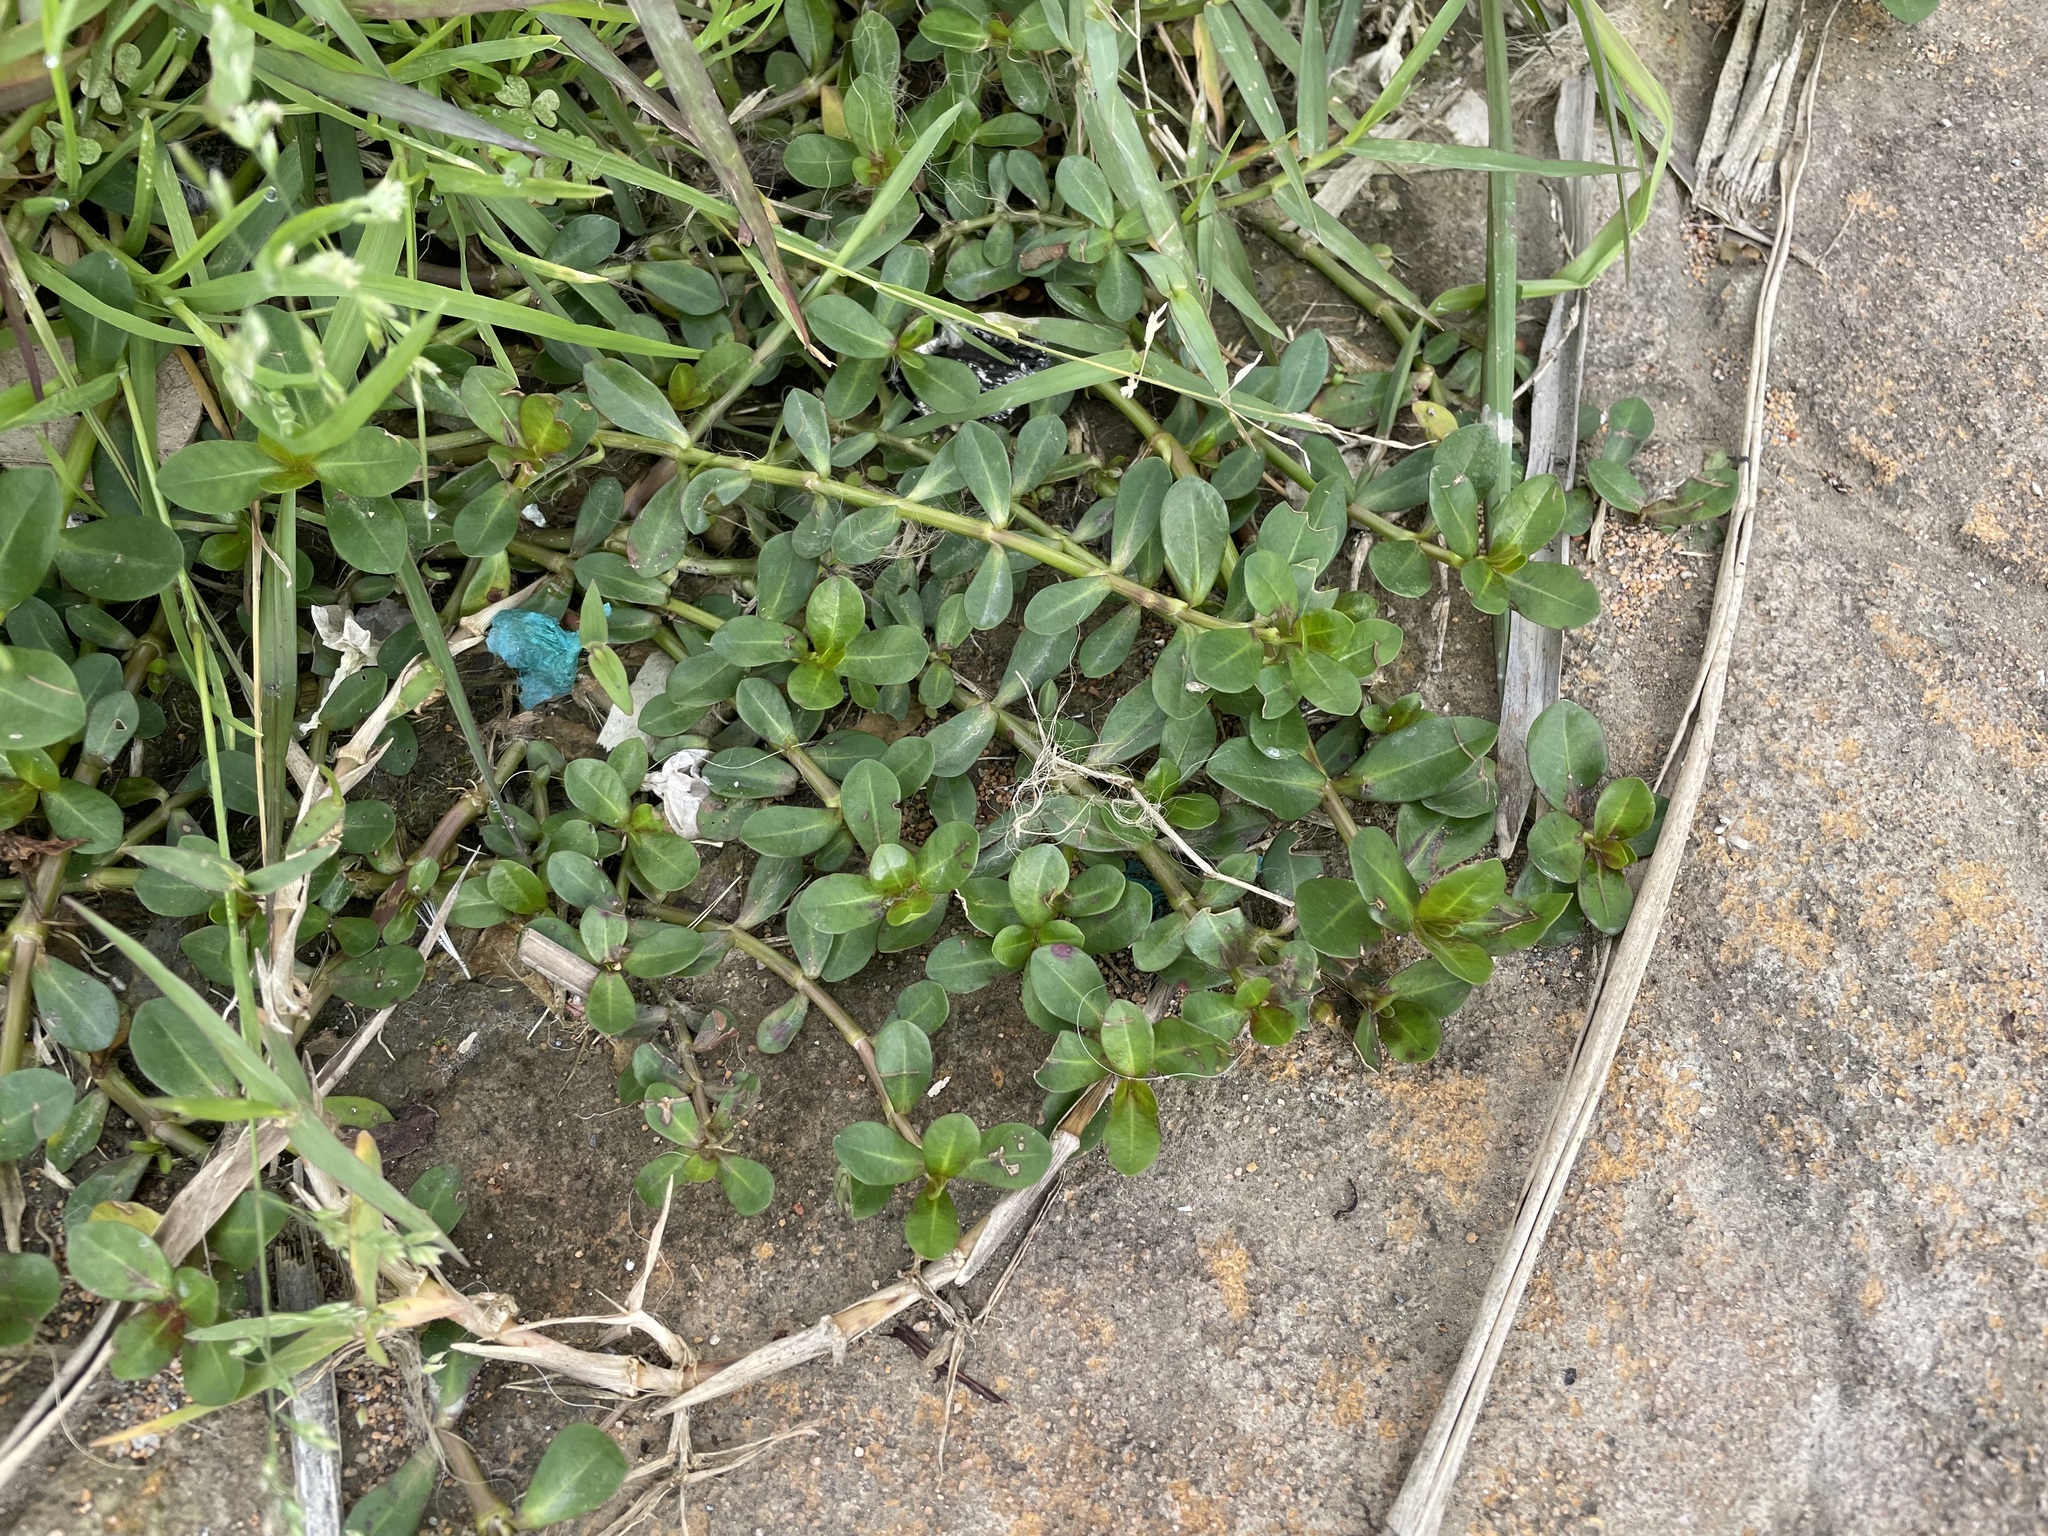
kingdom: Plantae
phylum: Tracheophyta
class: Magnoliopsida
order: Caryophyllales
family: Amaranthaceae
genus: Alternanthera
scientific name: Alternanthera philoxeroides
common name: Alligatorweed
